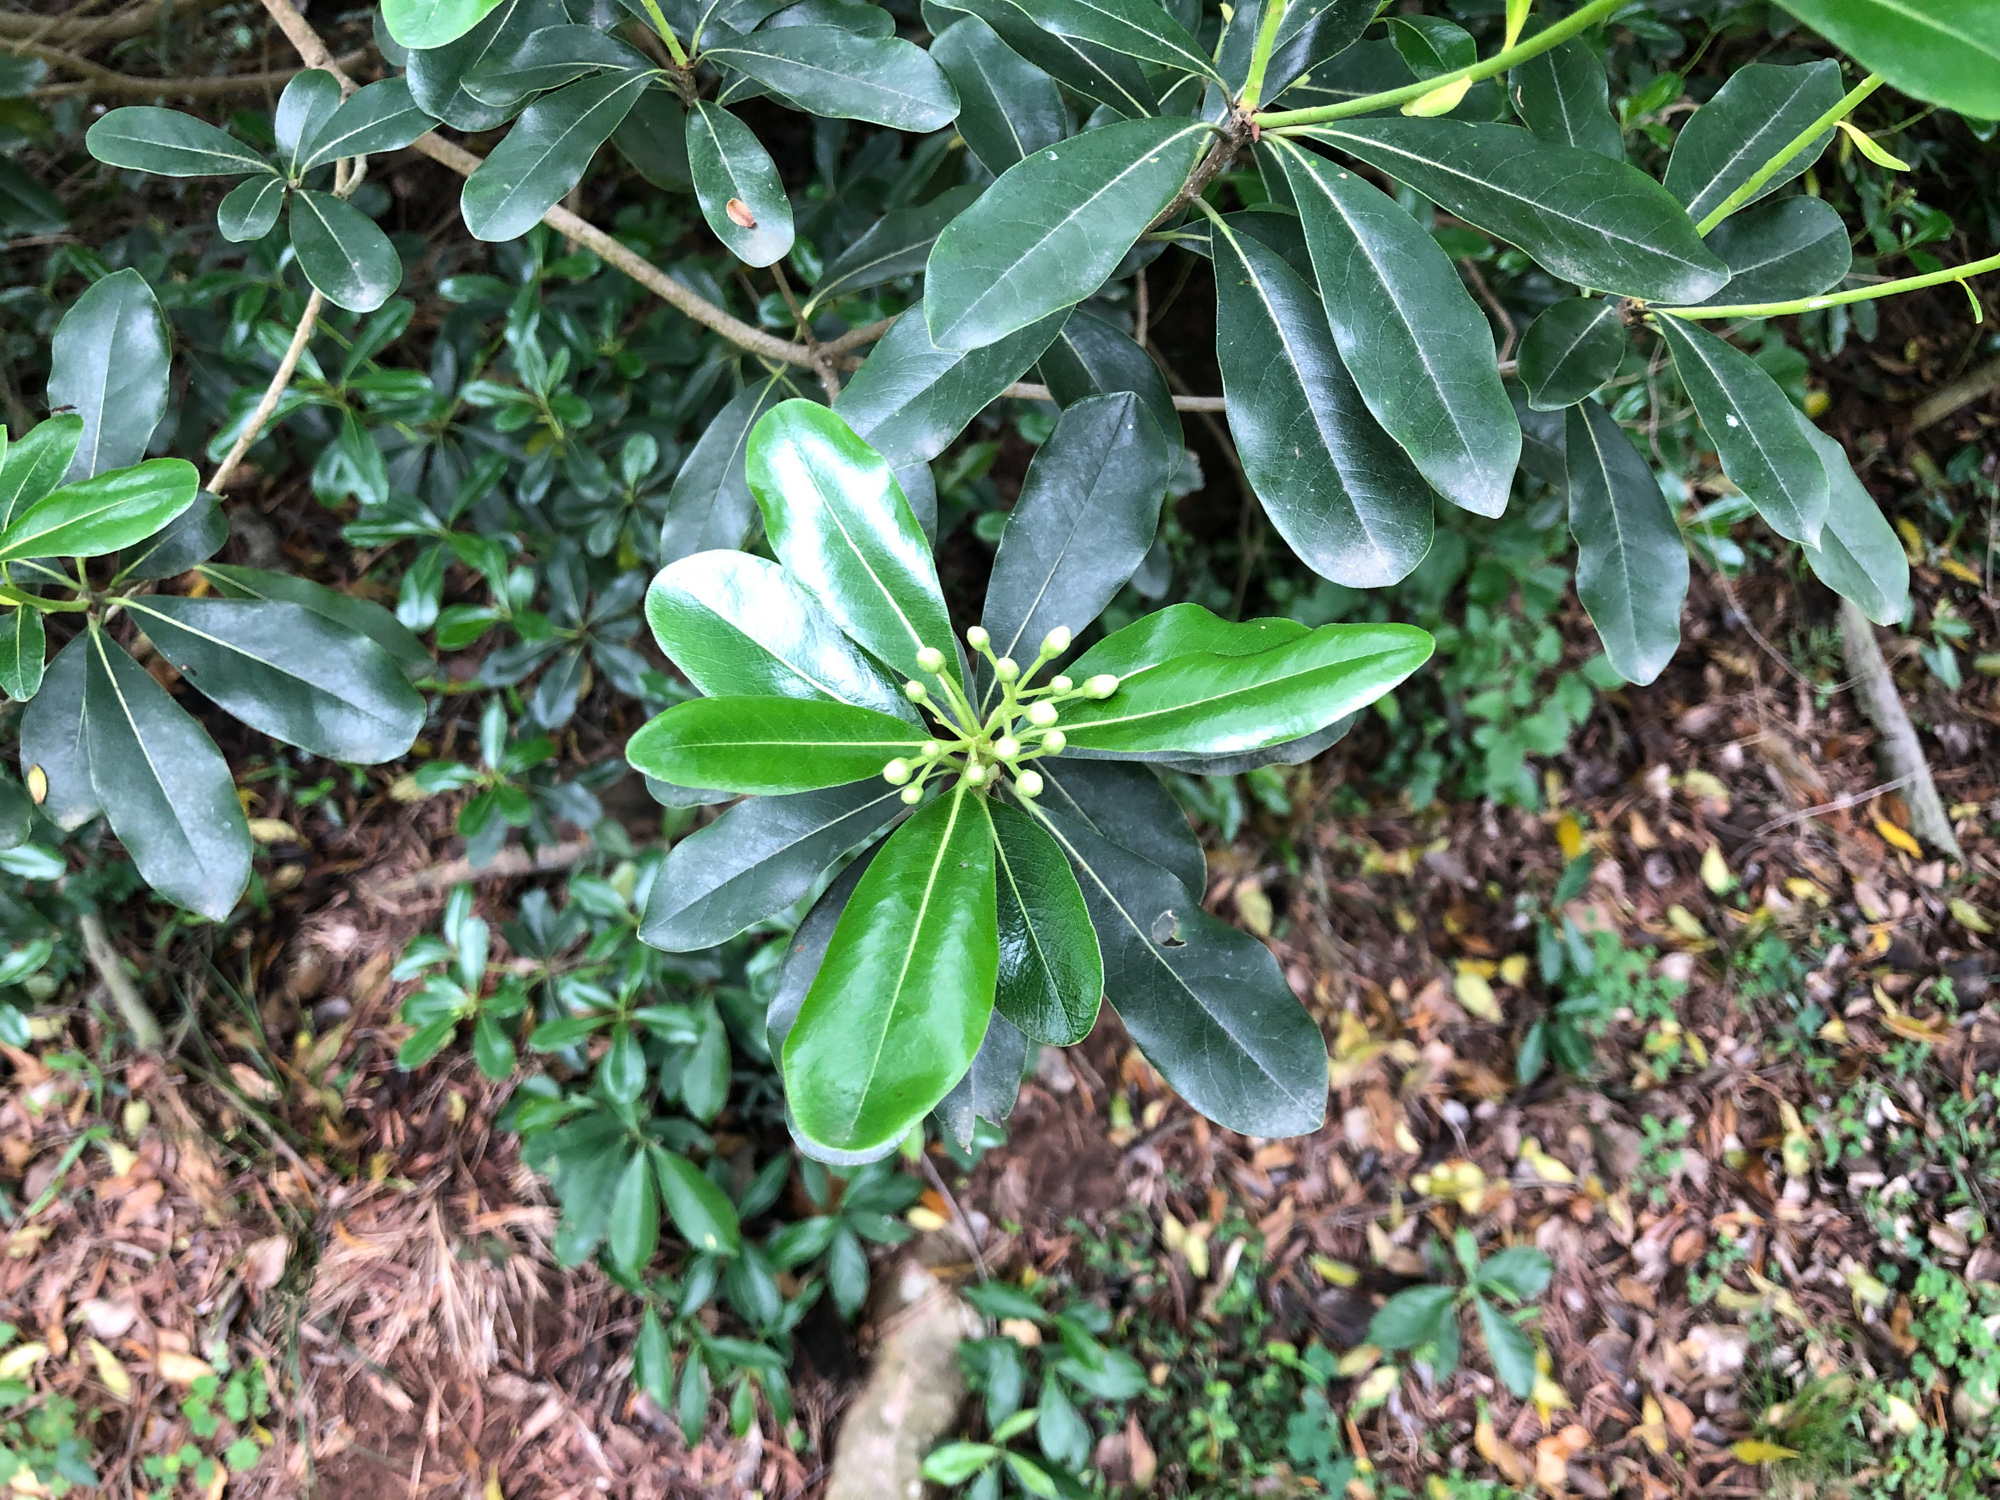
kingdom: Plantae
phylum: Tracheophyta
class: Magnoliopsida
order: Apiales
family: Pittosporaceae
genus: Pittosporum
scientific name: Pittosporum tobira
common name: Japanese cheesewood
